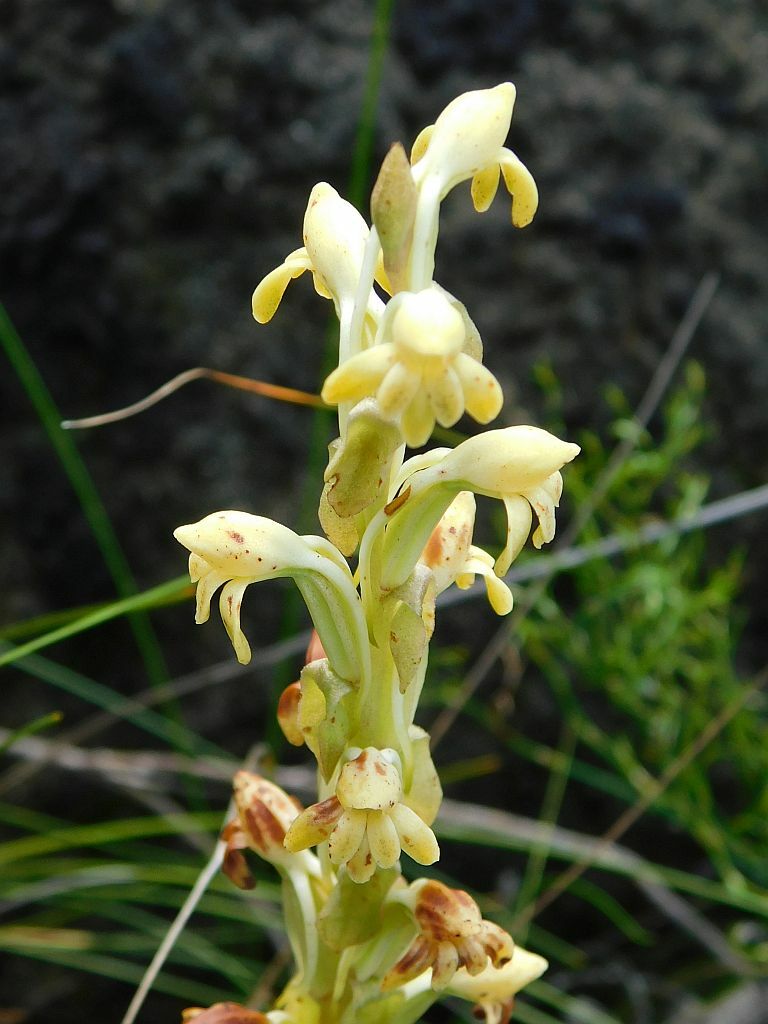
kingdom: Plantae
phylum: Tracheophyta
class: Liliopsida
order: Asparagales
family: Orchidaceae
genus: Satyrium
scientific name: Satyrium bicorne
